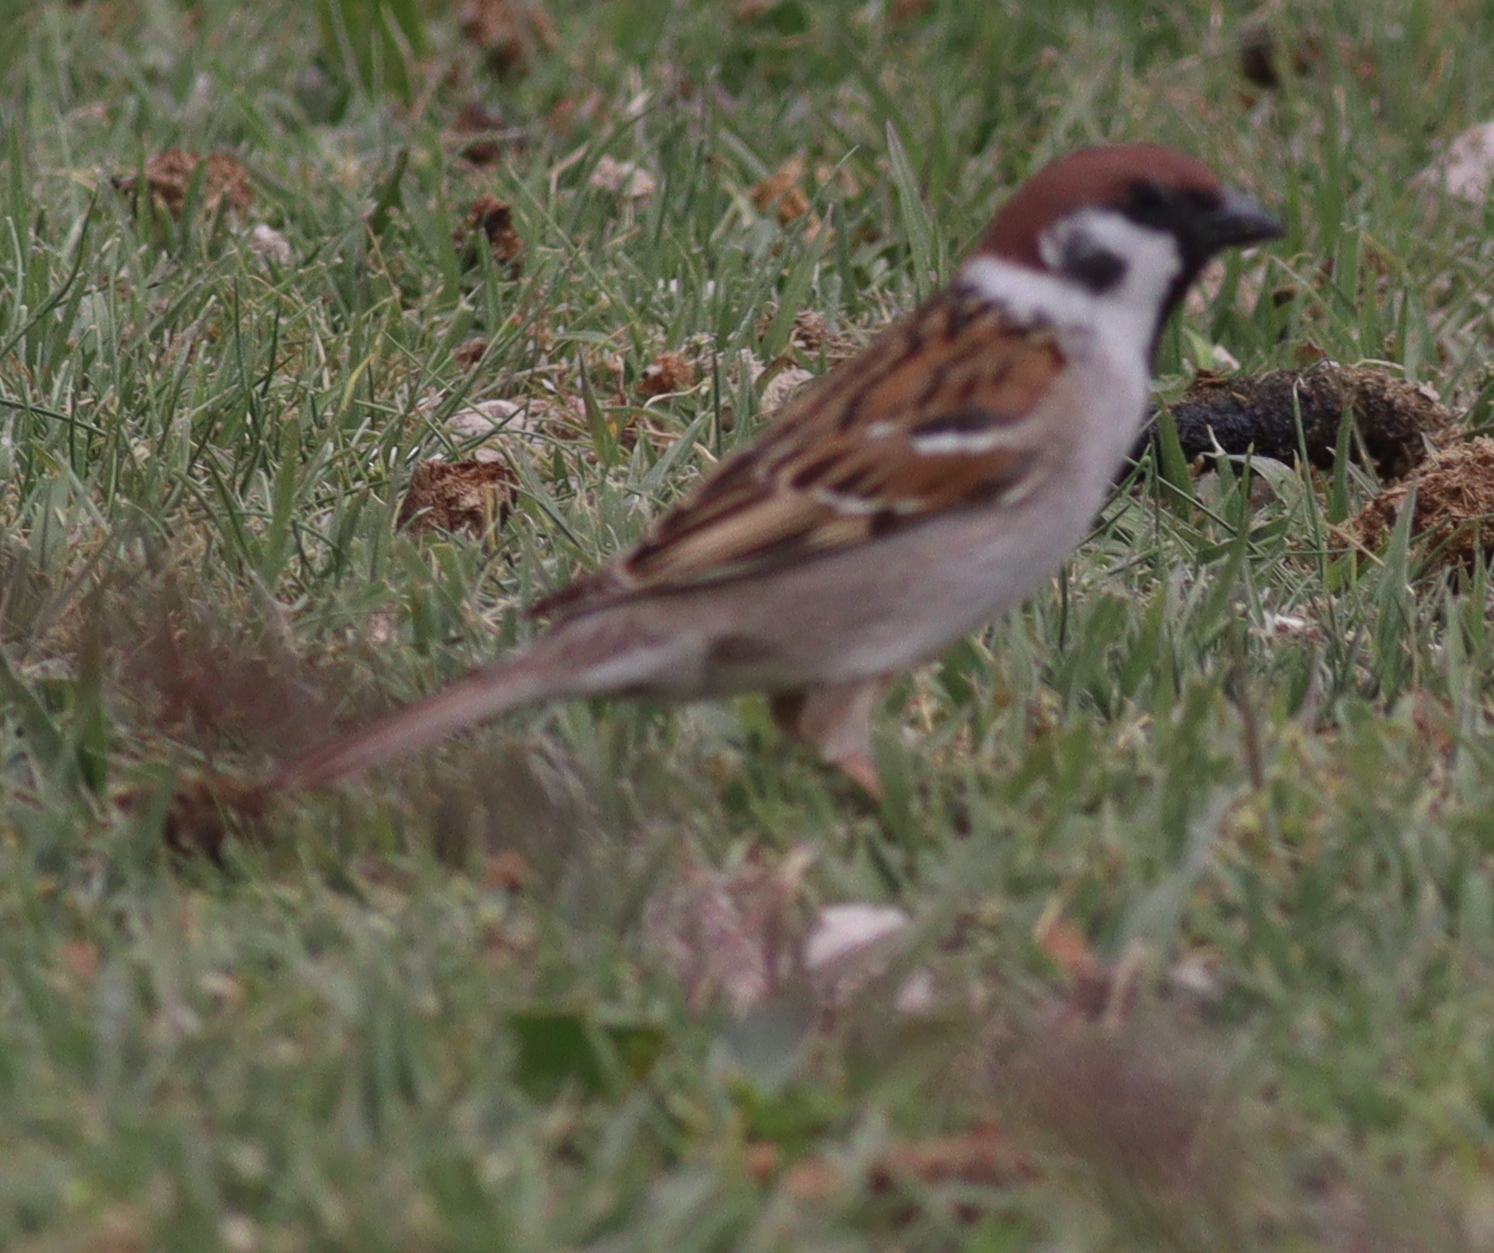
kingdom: Animalia
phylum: Chordata
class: Aves
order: Passeriformes
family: Passeridae
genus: Passer
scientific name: Passer montanus
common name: Eurasian tree sparrow
